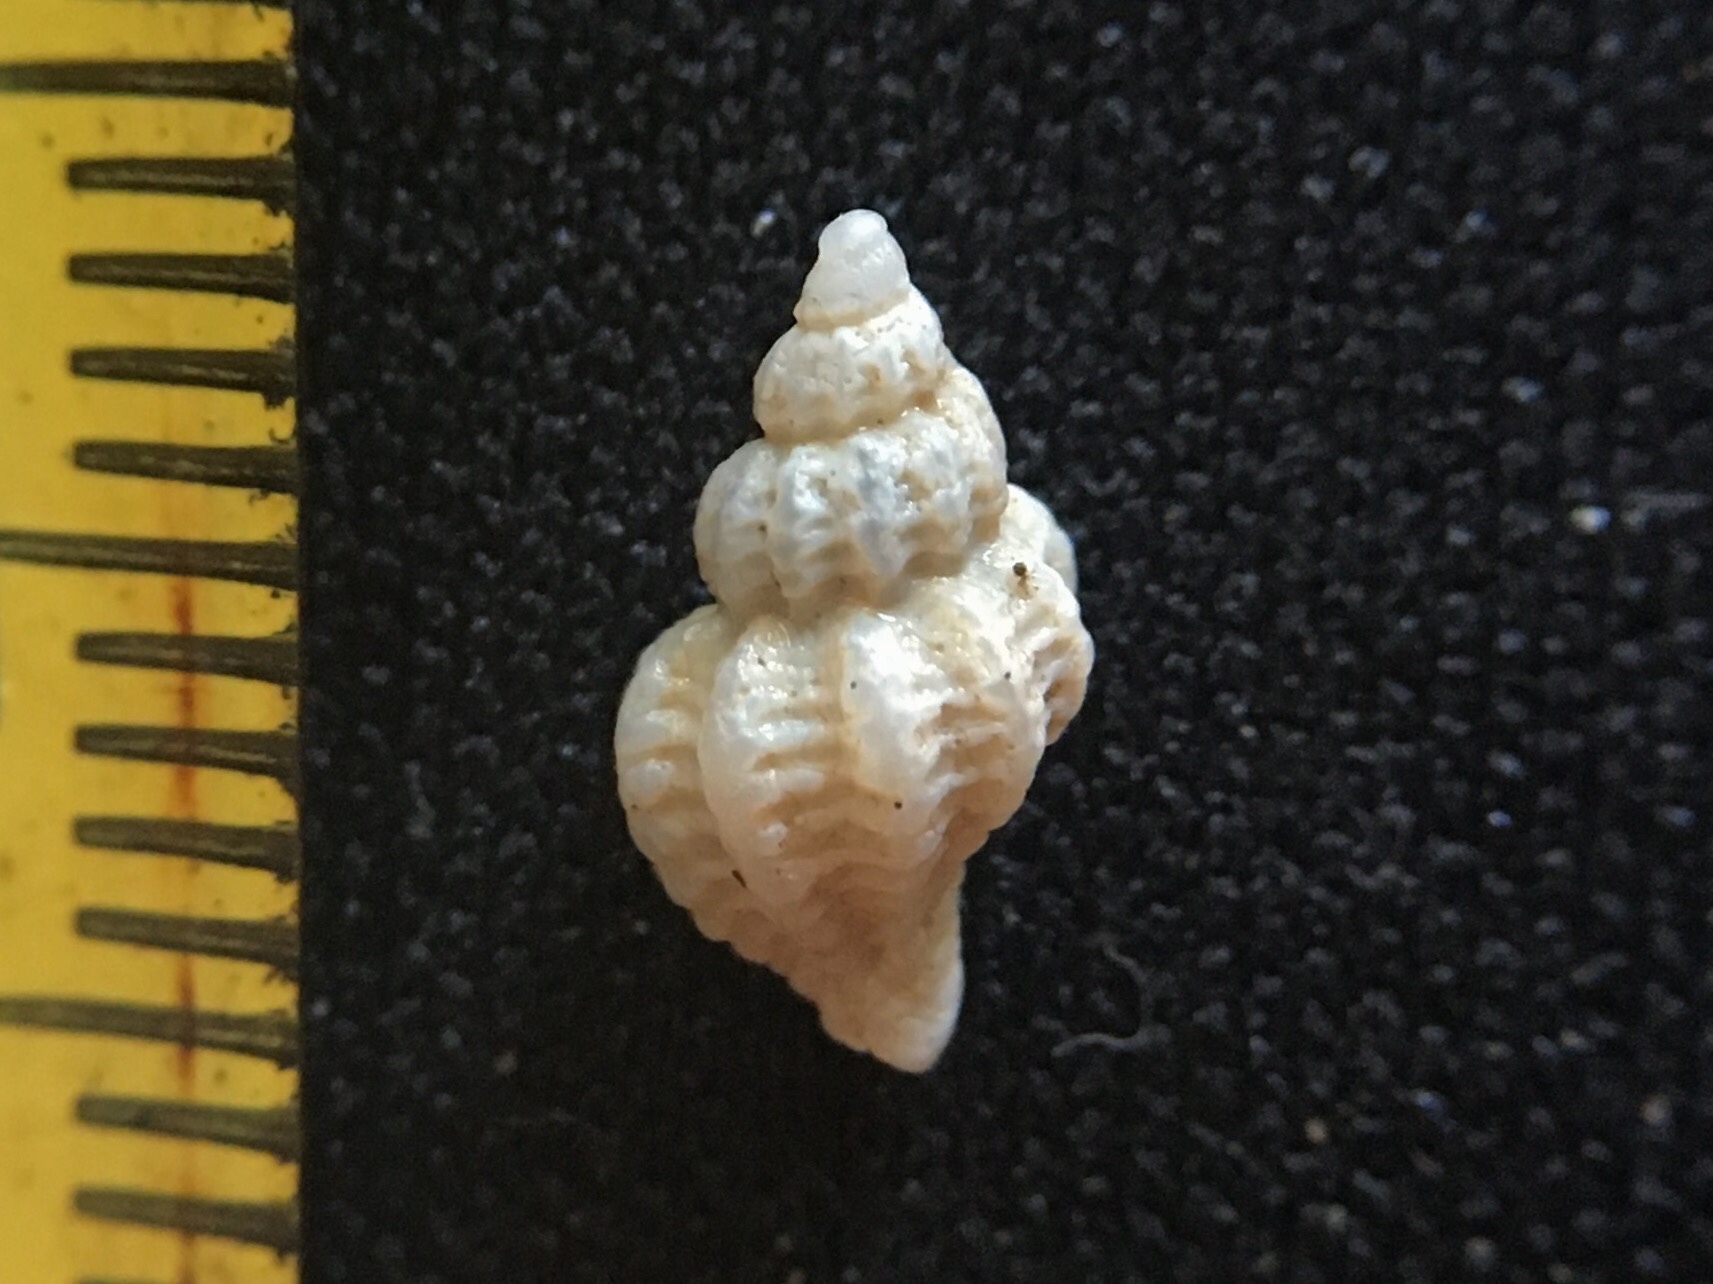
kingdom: Animalia
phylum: Mollusca
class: Gastropoda
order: Neogastropoda
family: Muricidae
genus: Urosalpinx
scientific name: Urosalpinx cala
